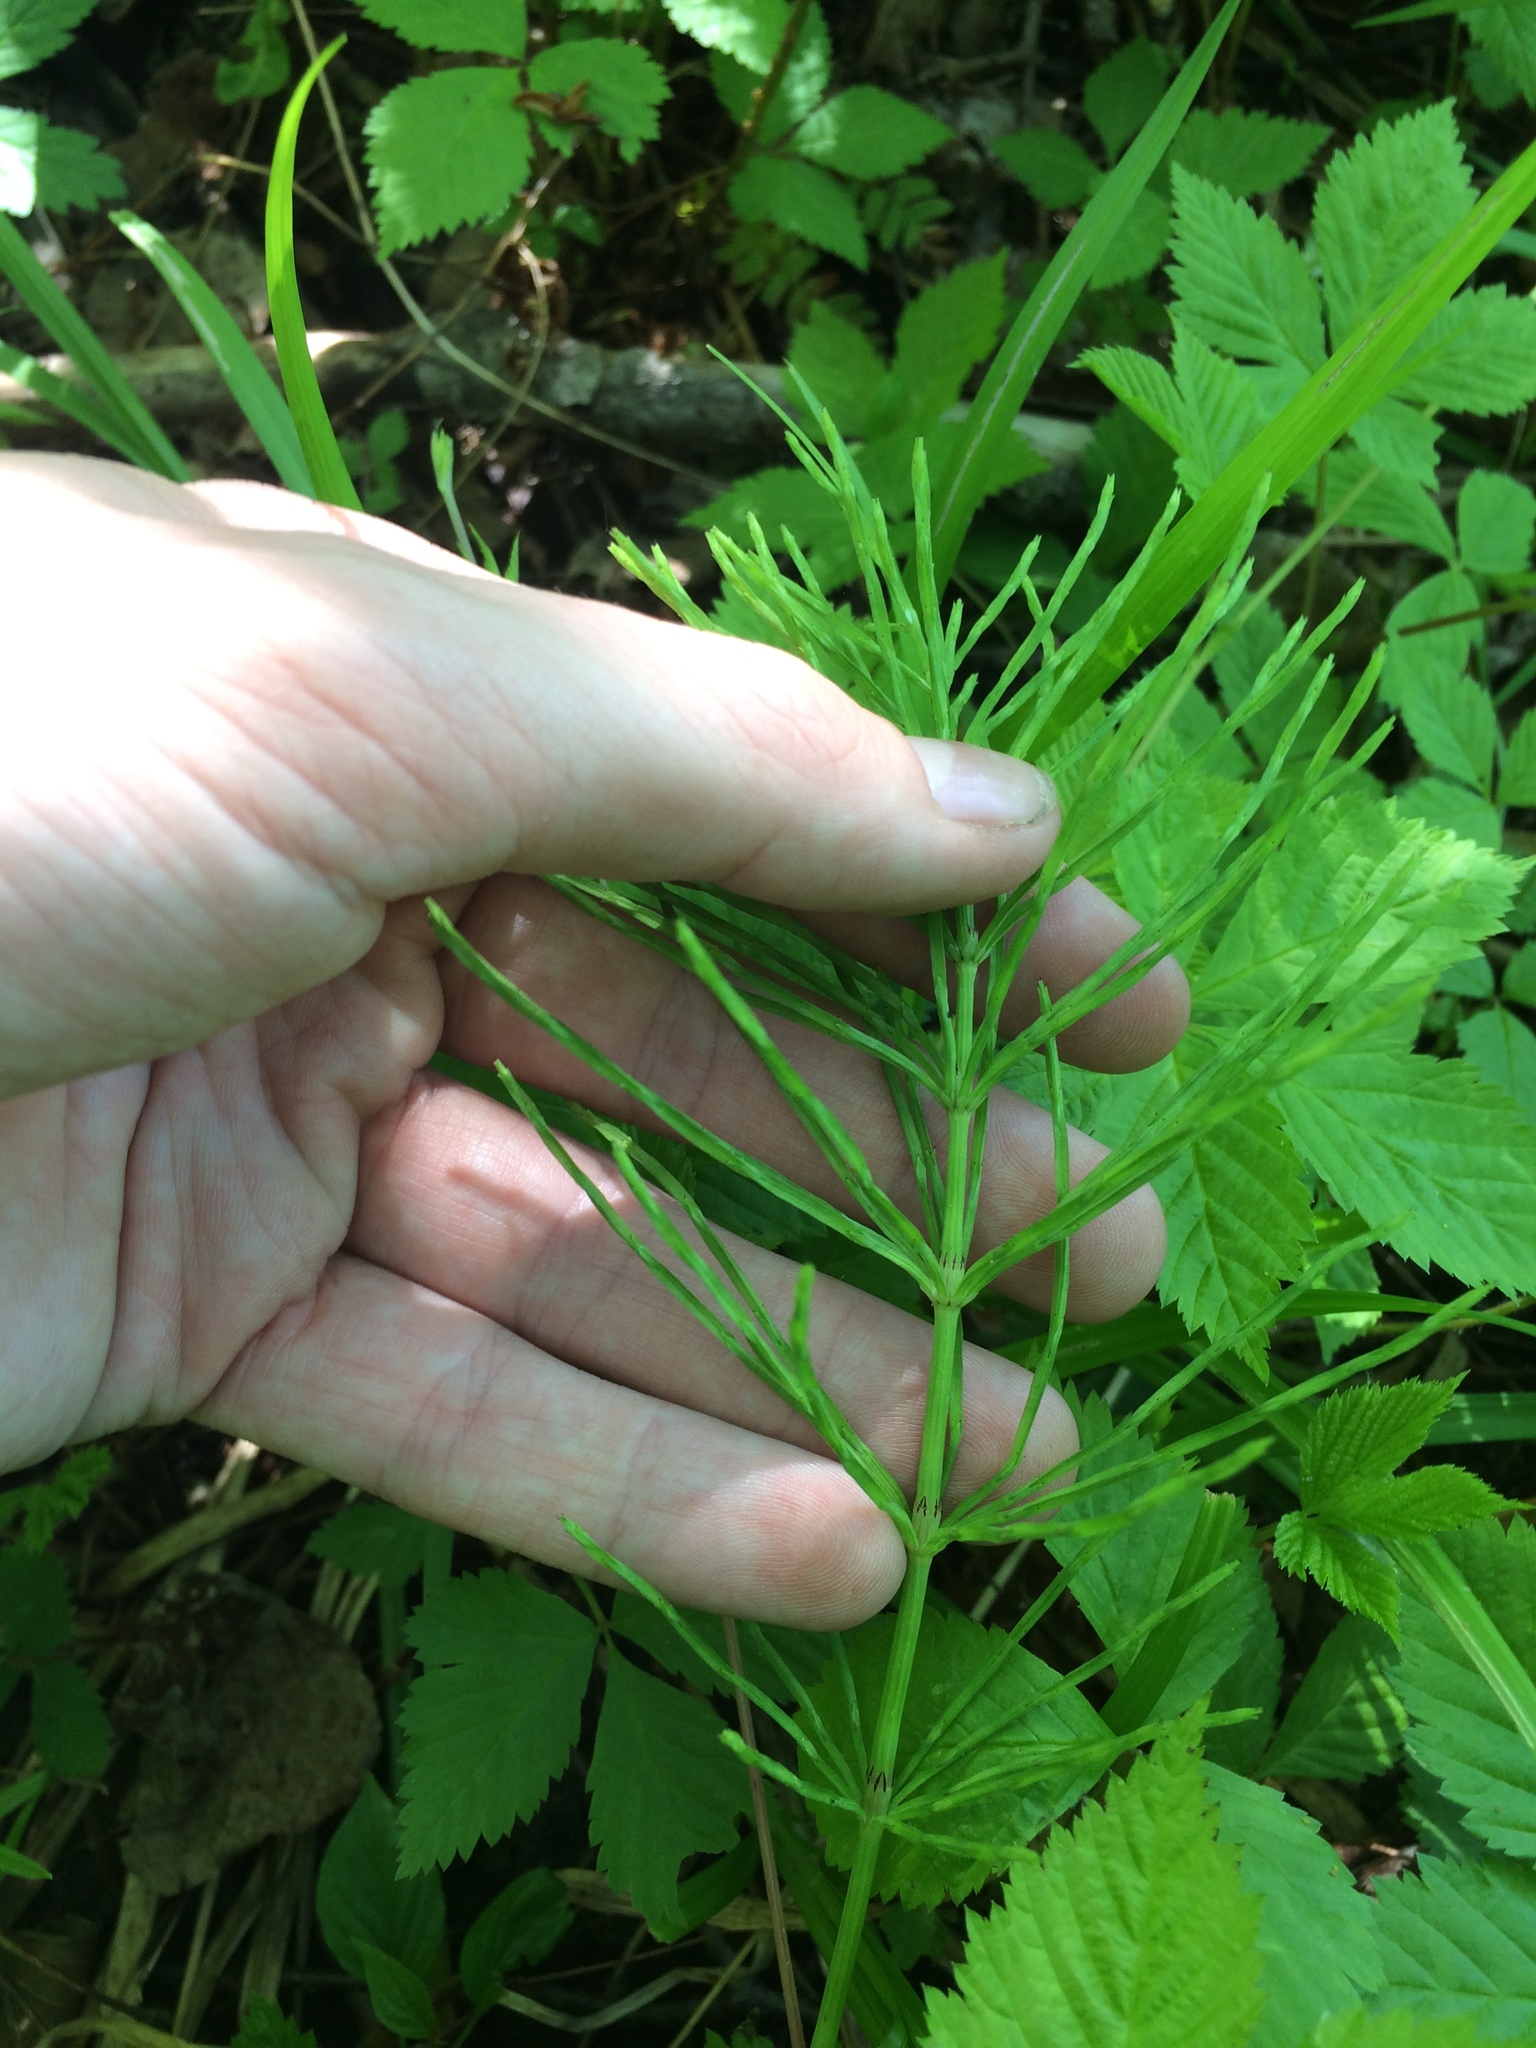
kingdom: Plantae
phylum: Tracheophyta
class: Polypodiopsida
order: Equisetales
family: Equisetaceae
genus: Equisetum
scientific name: Equisetum arvense
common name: Field horsetail
